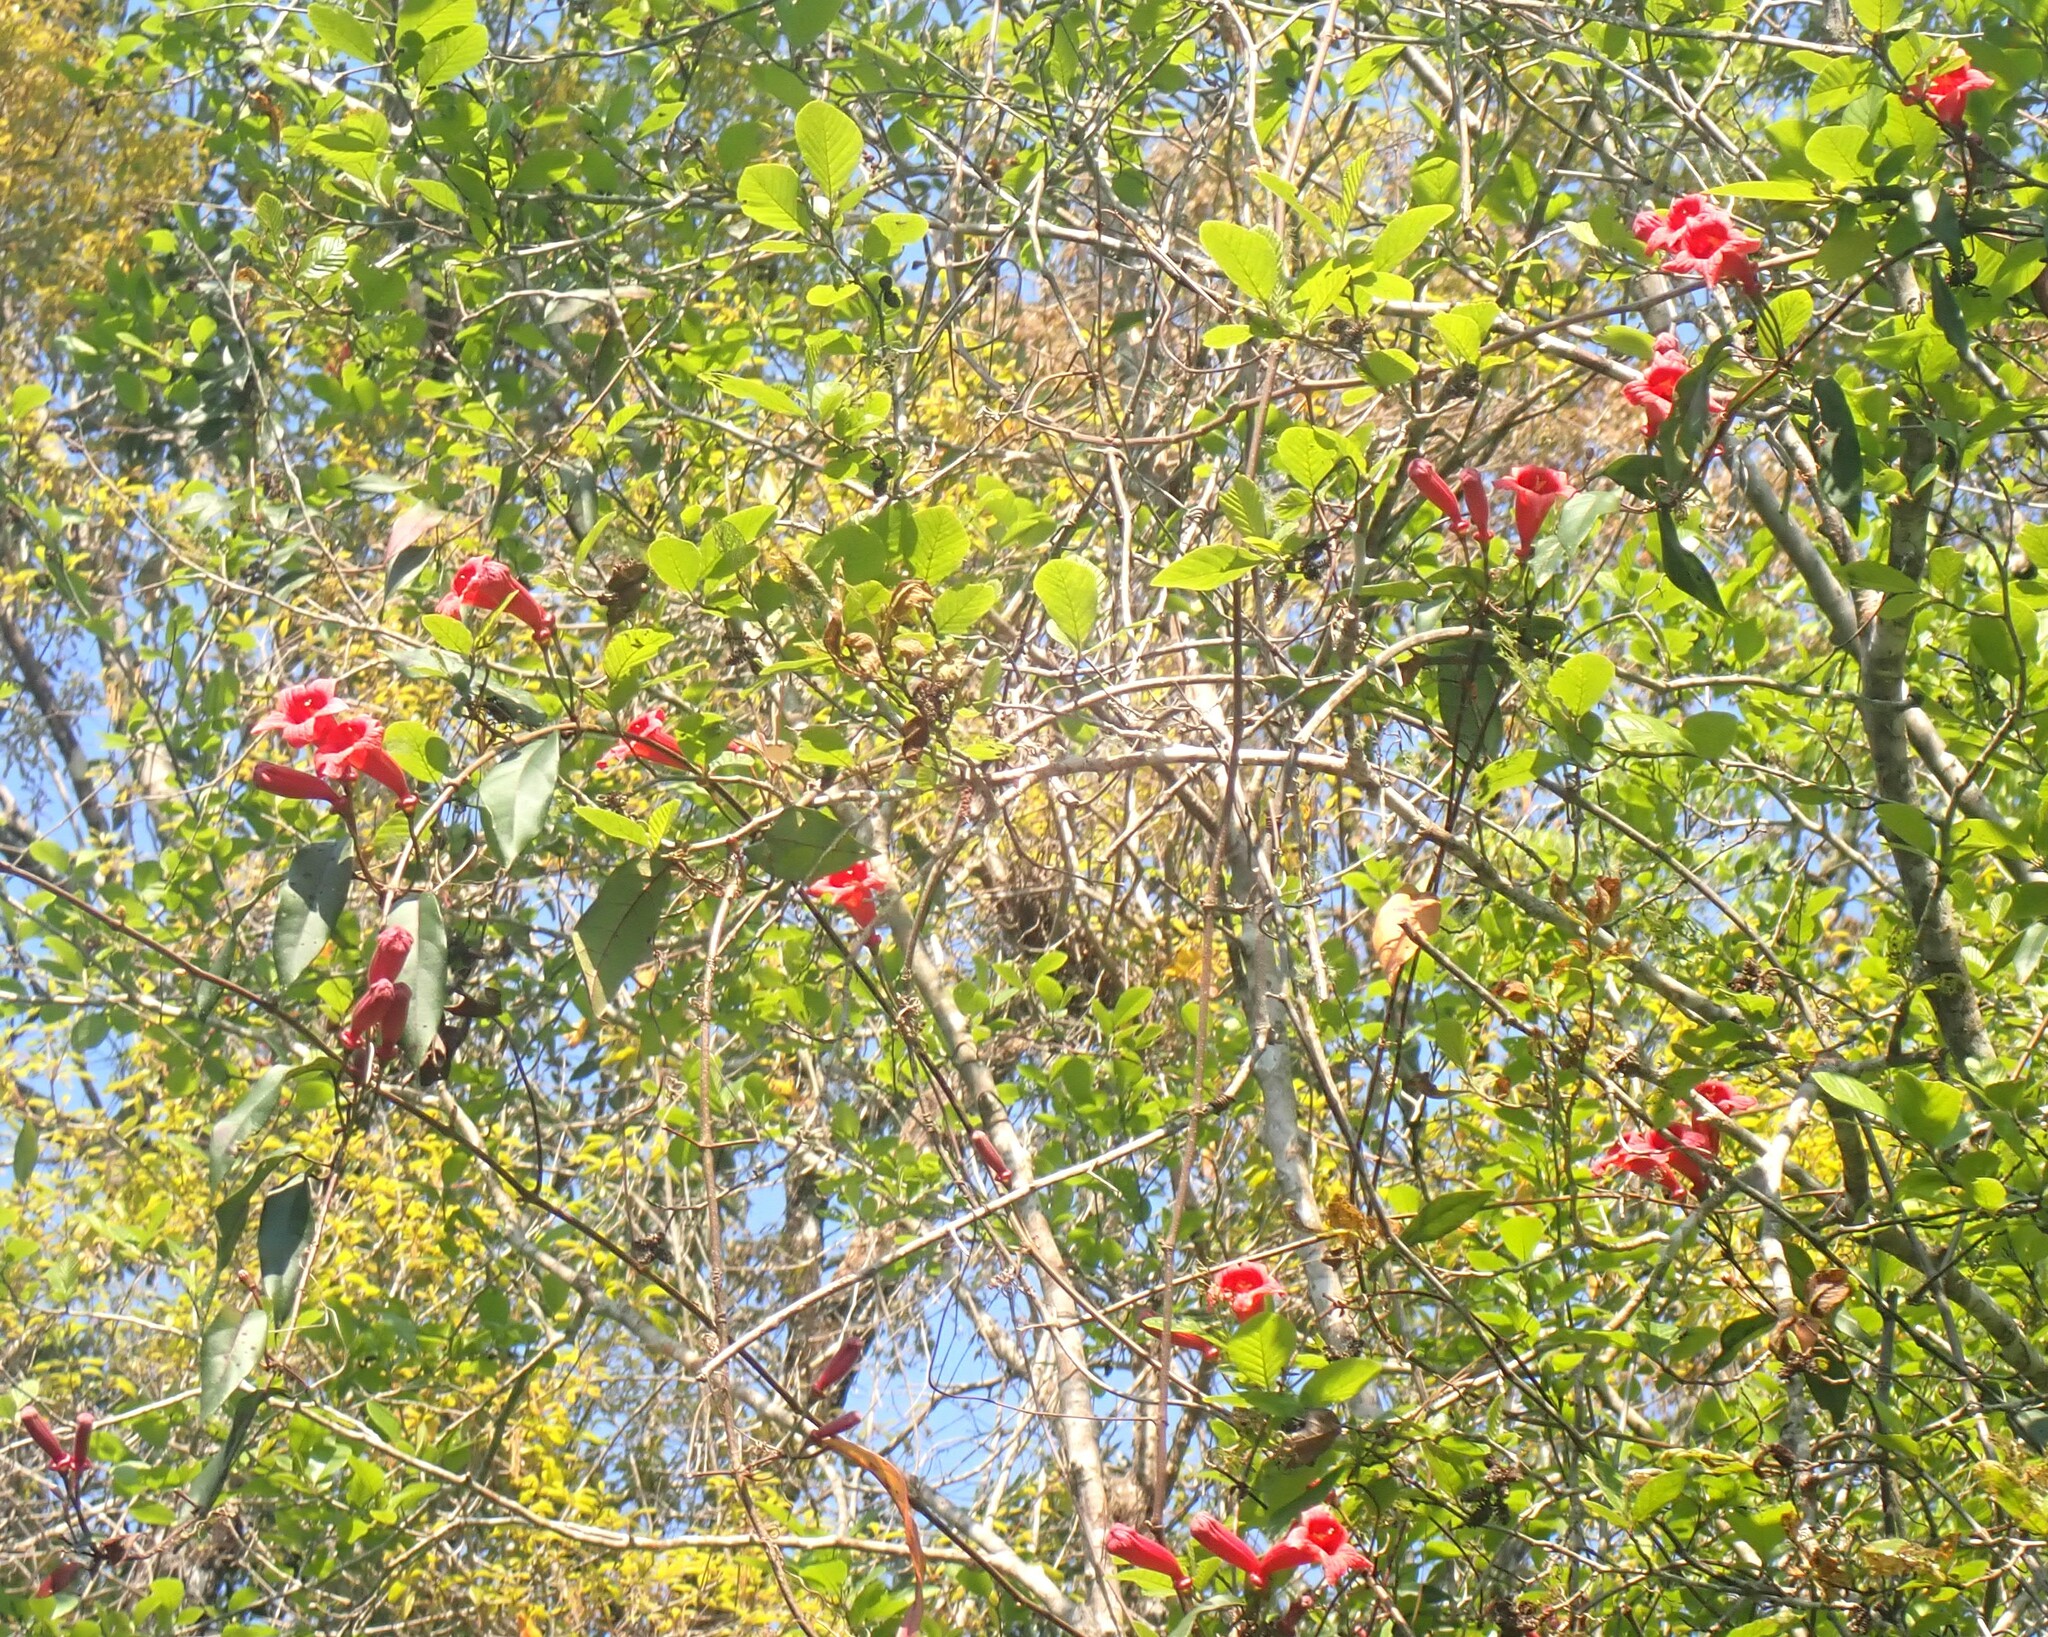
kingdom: Plantae
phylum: Tracheophyta
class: Magnoliopsida
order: Lamiales
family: Bignoniaceae
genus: Bignonia
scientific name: Bignonia capreolata
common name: Crossvine
